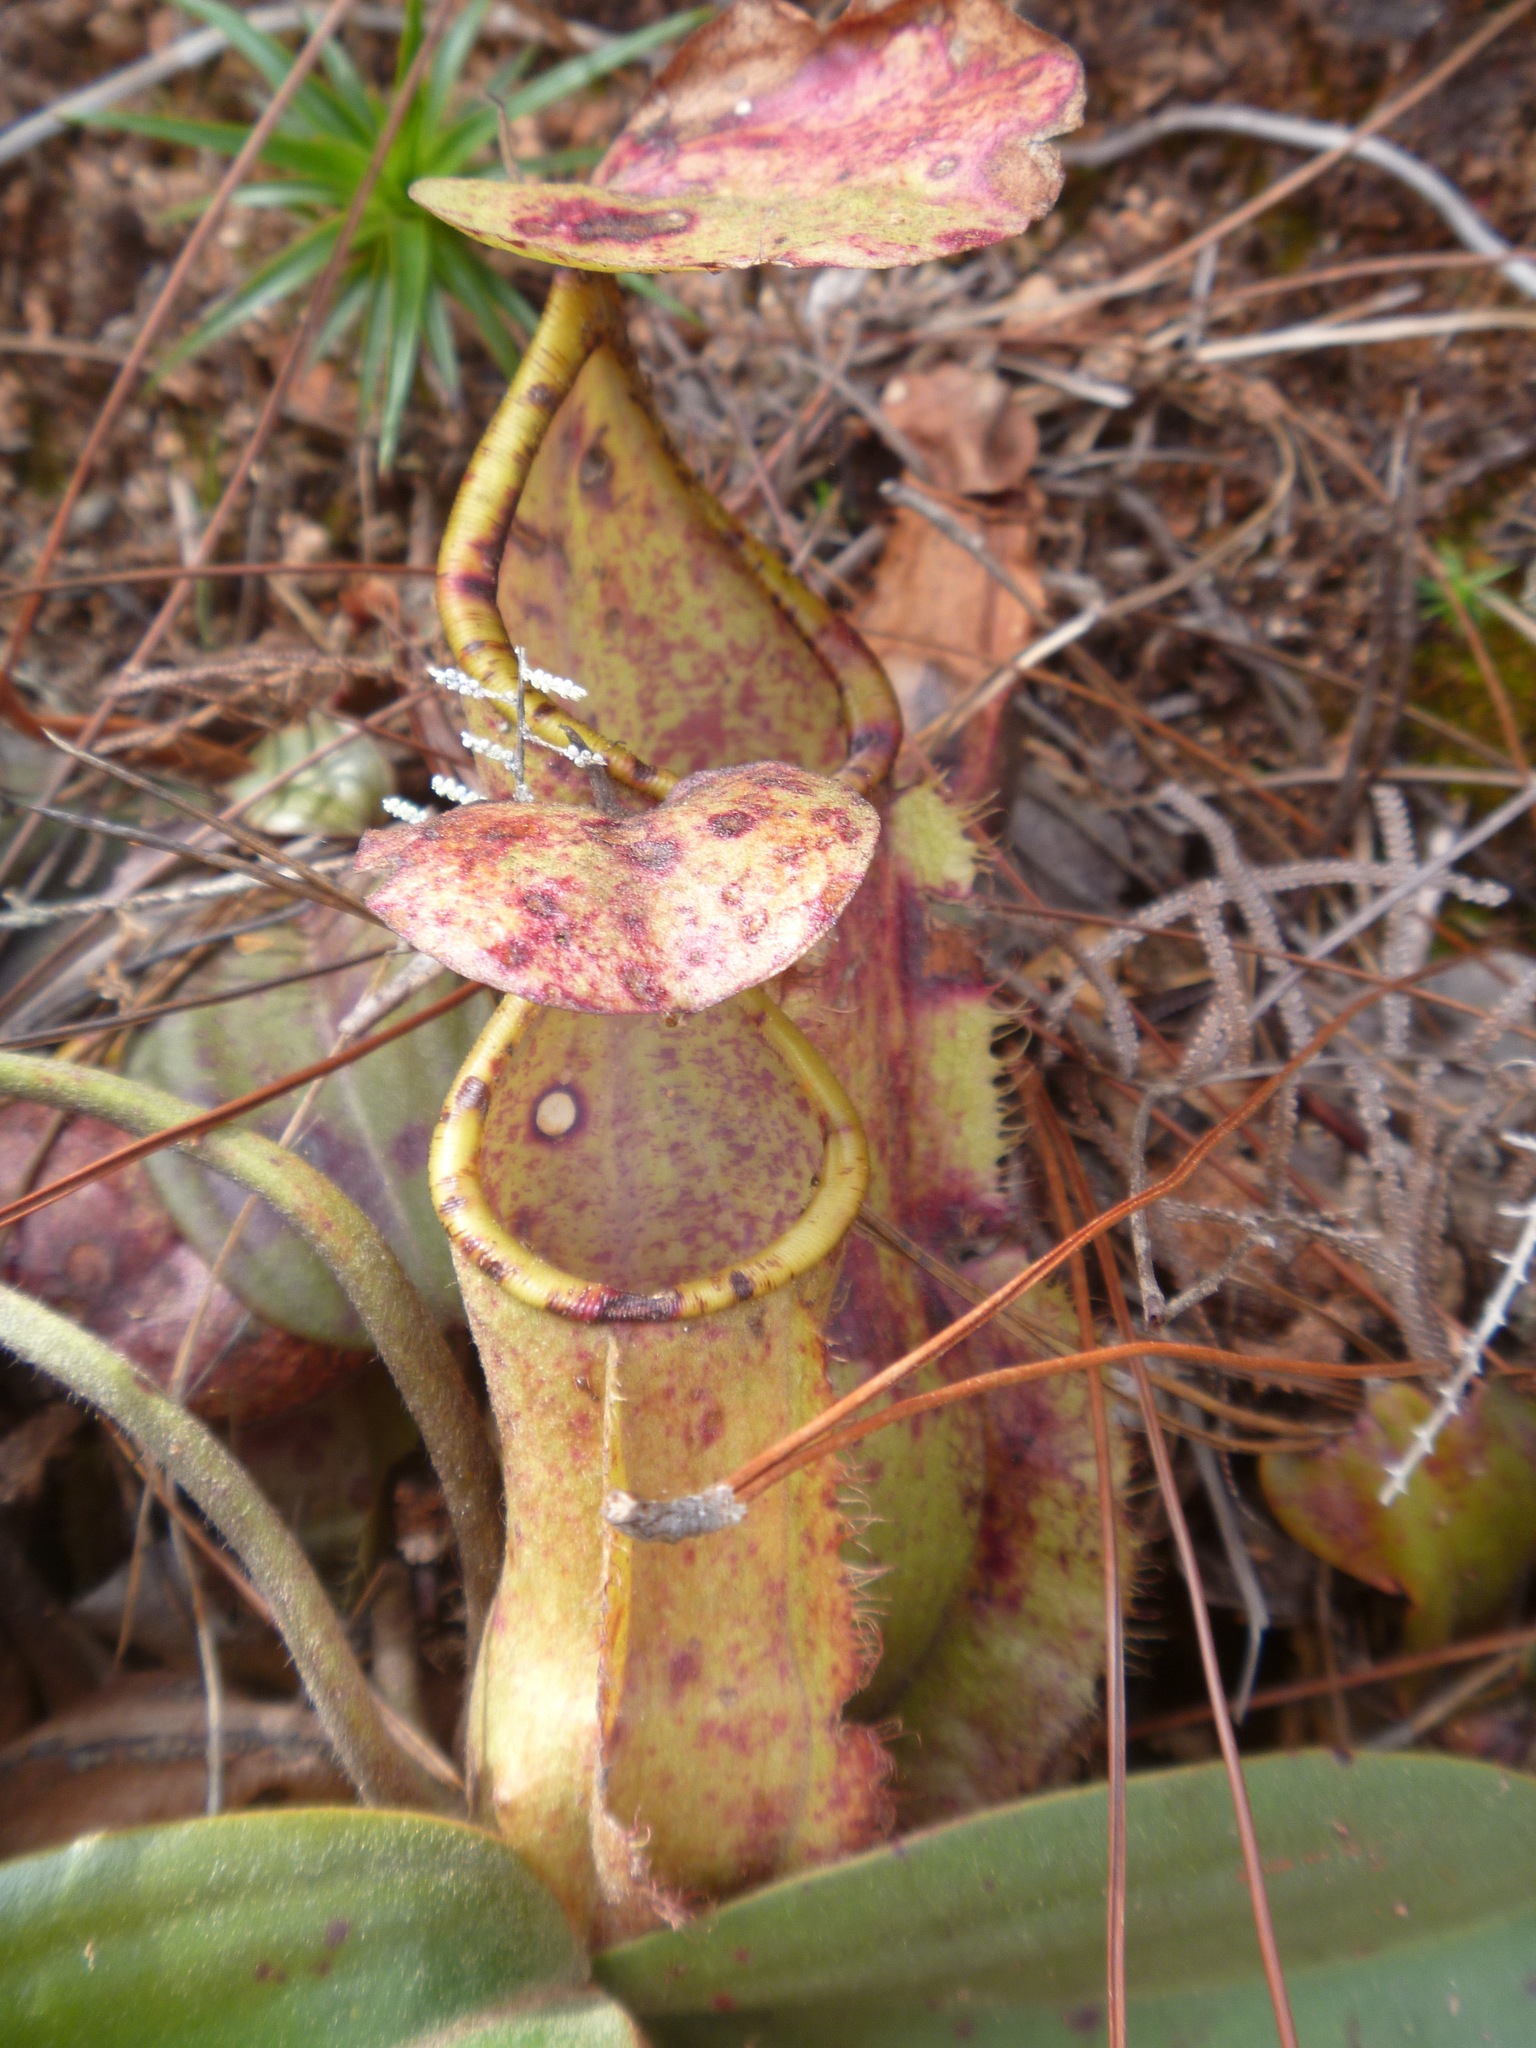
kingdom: Plantae
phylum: Tracheophyta
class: Magnoliopsida
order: Caryophyllales
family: Nepenthaceae
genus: Nepenthes
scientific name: Nepenthes vieillardii
